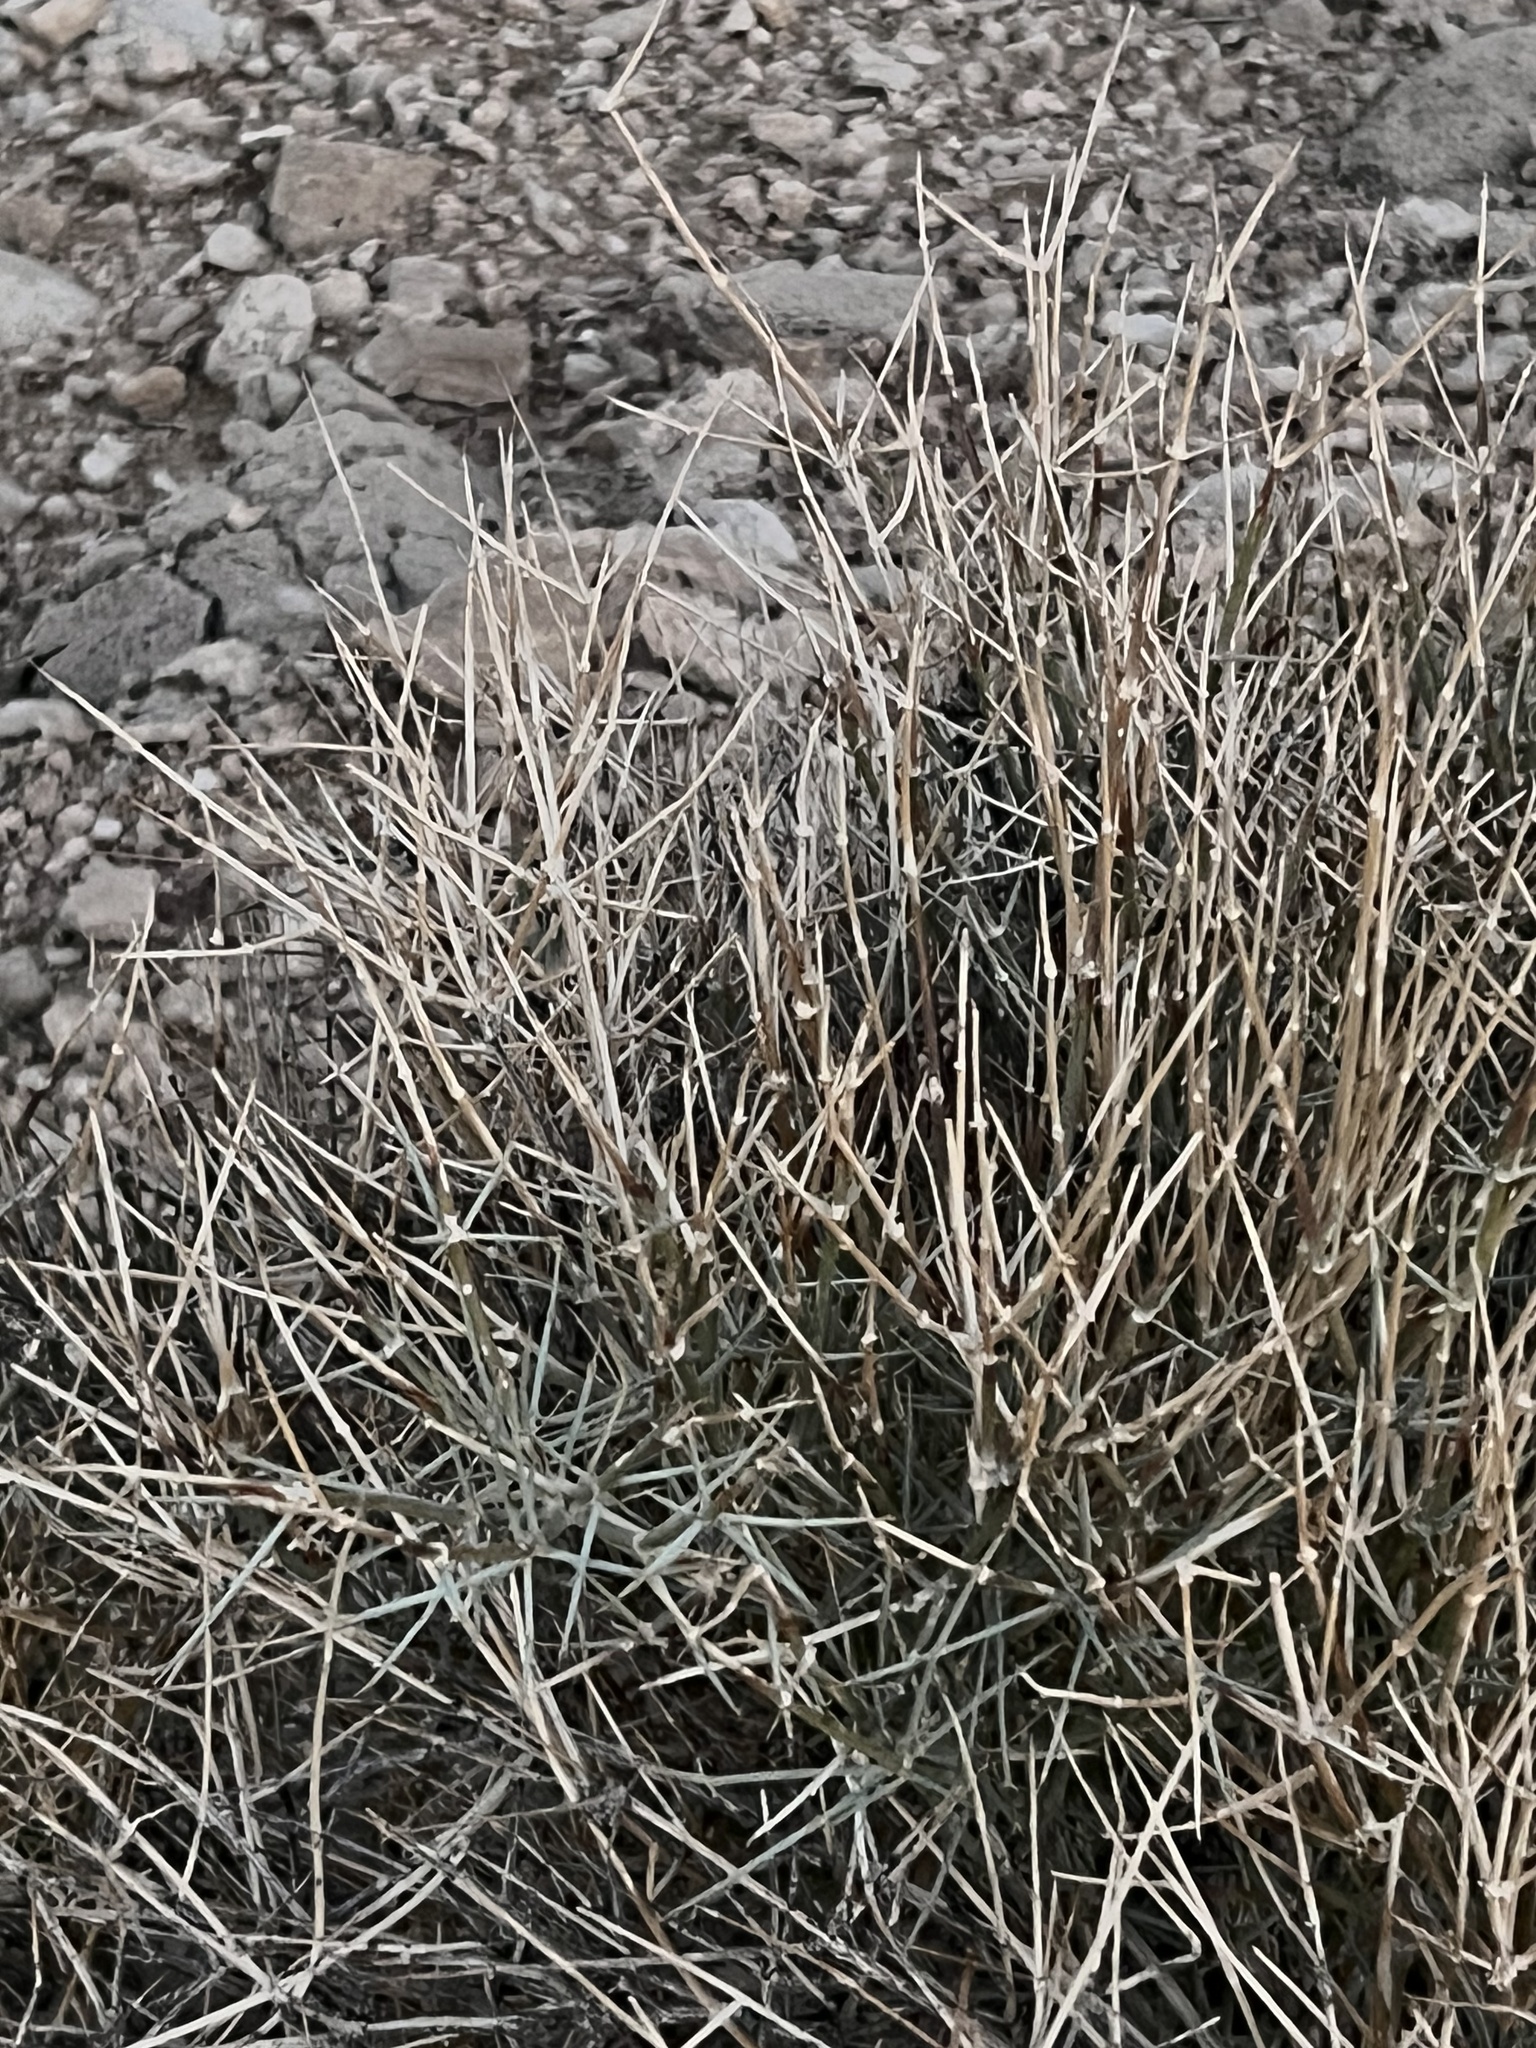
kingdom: Plantae
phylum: Tracheophyta
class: Gnetopsida
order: Ephedrales
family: Ephedraceae
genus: Ephedra
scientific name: Ephedra nevadensis
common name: Gray ephedra
